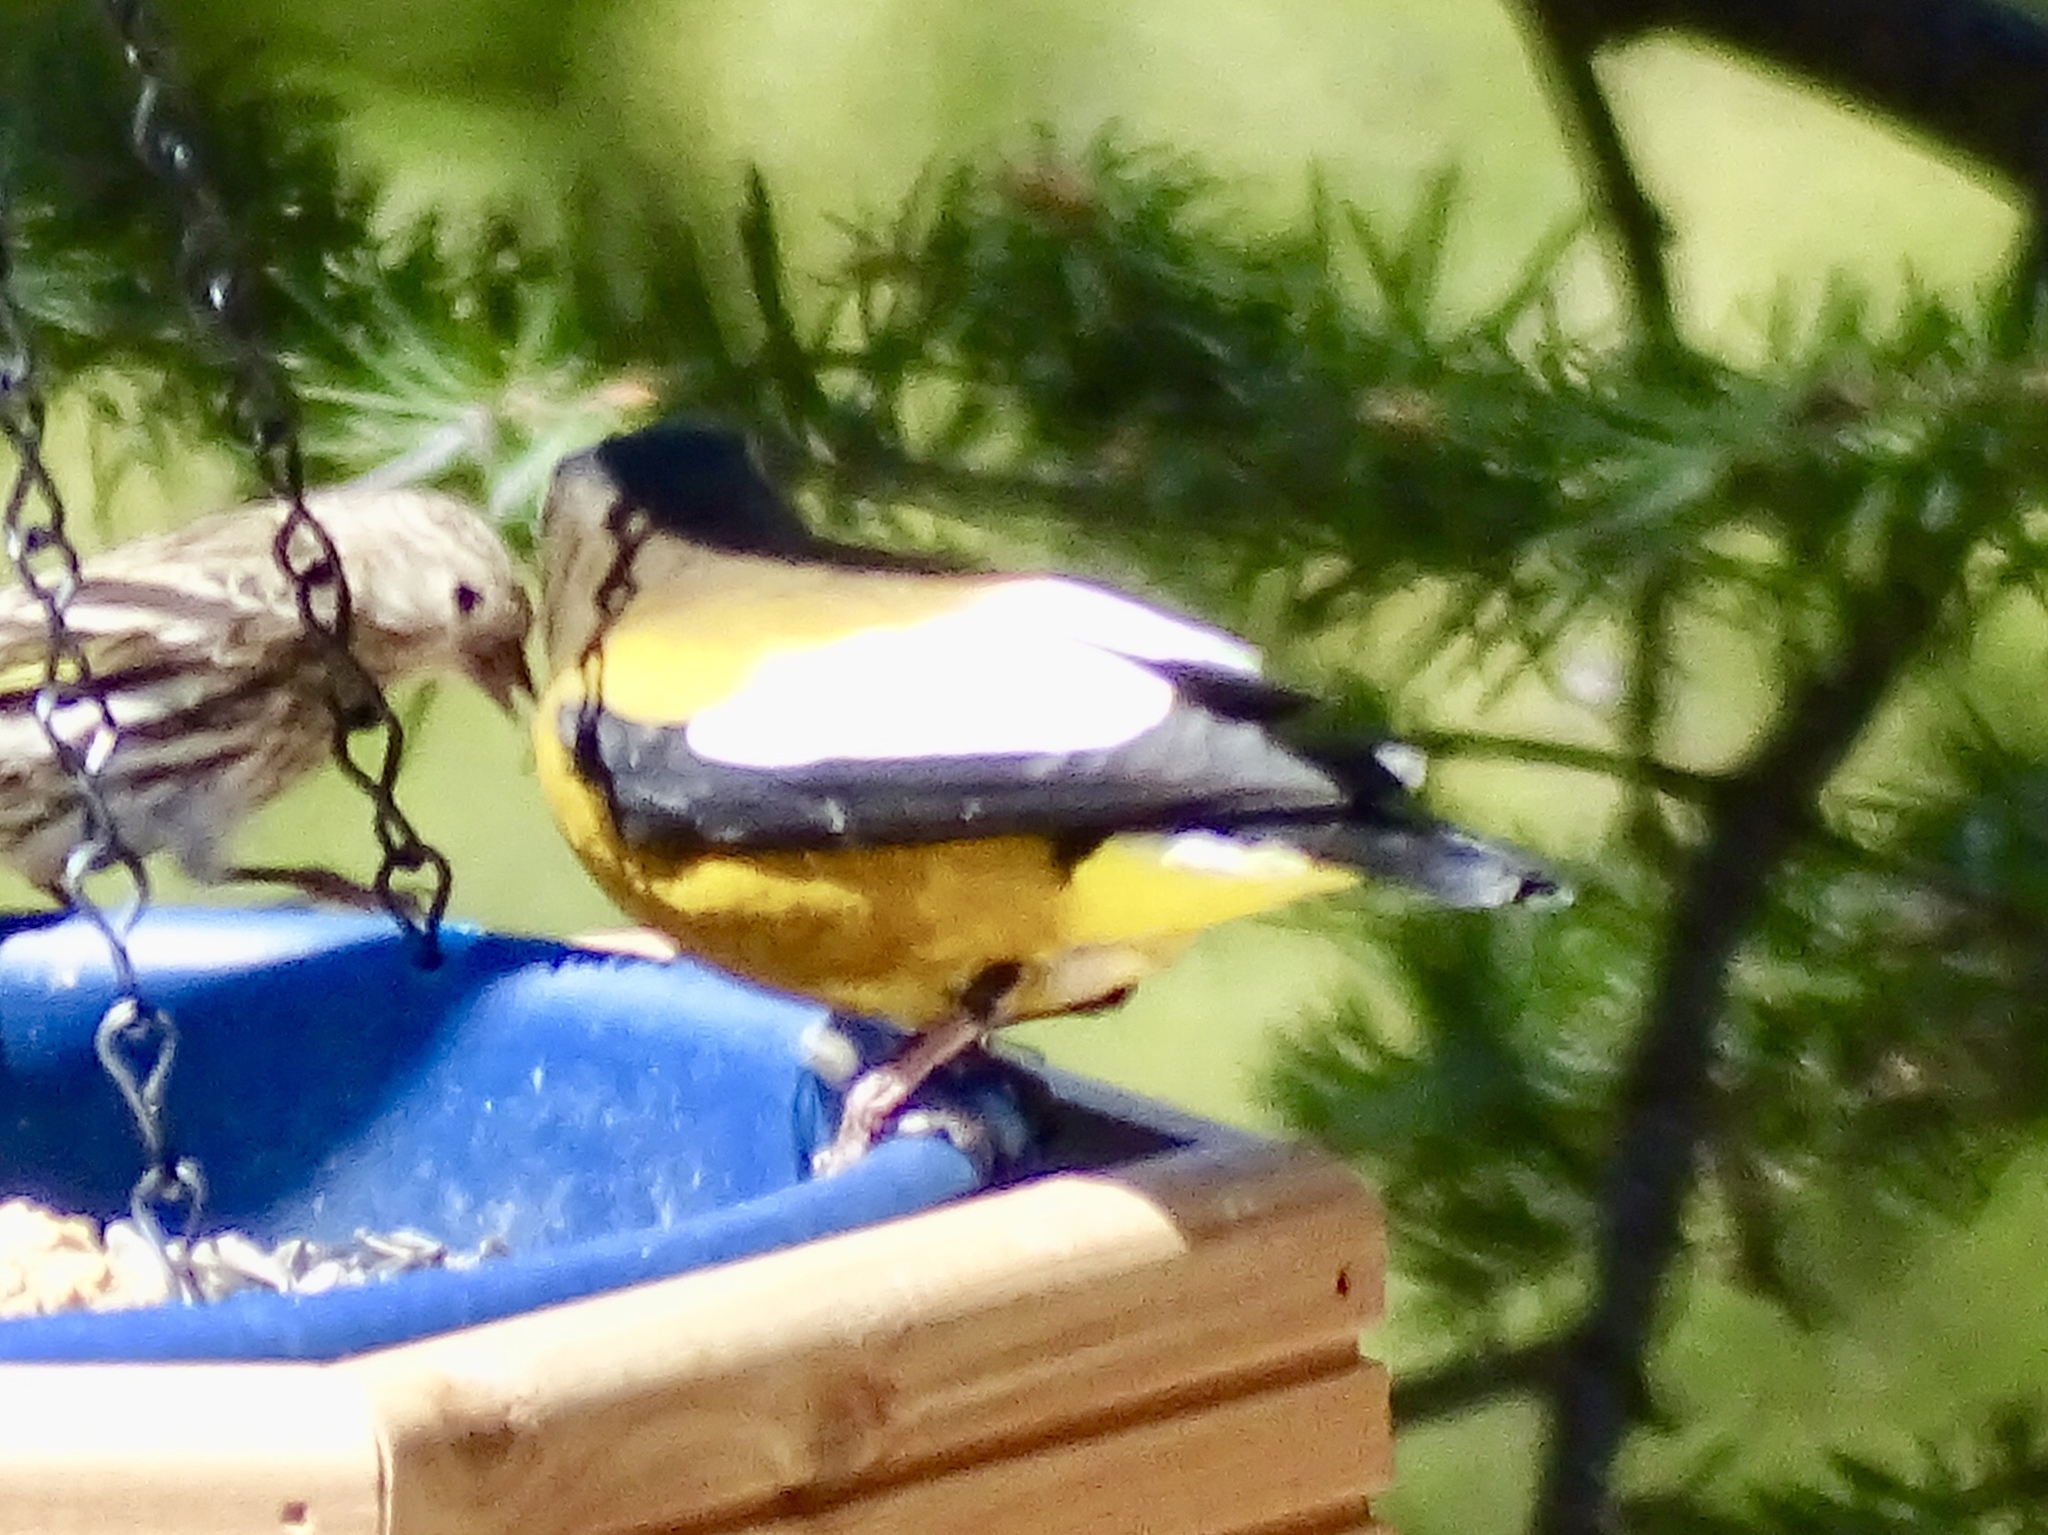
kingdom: Animalia
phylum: Chordata
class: Aves
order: Passeriformes
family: Fringillidae
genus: Hesperiphona
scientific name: Hesperiphona vespertina
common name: Evening grosbeak
